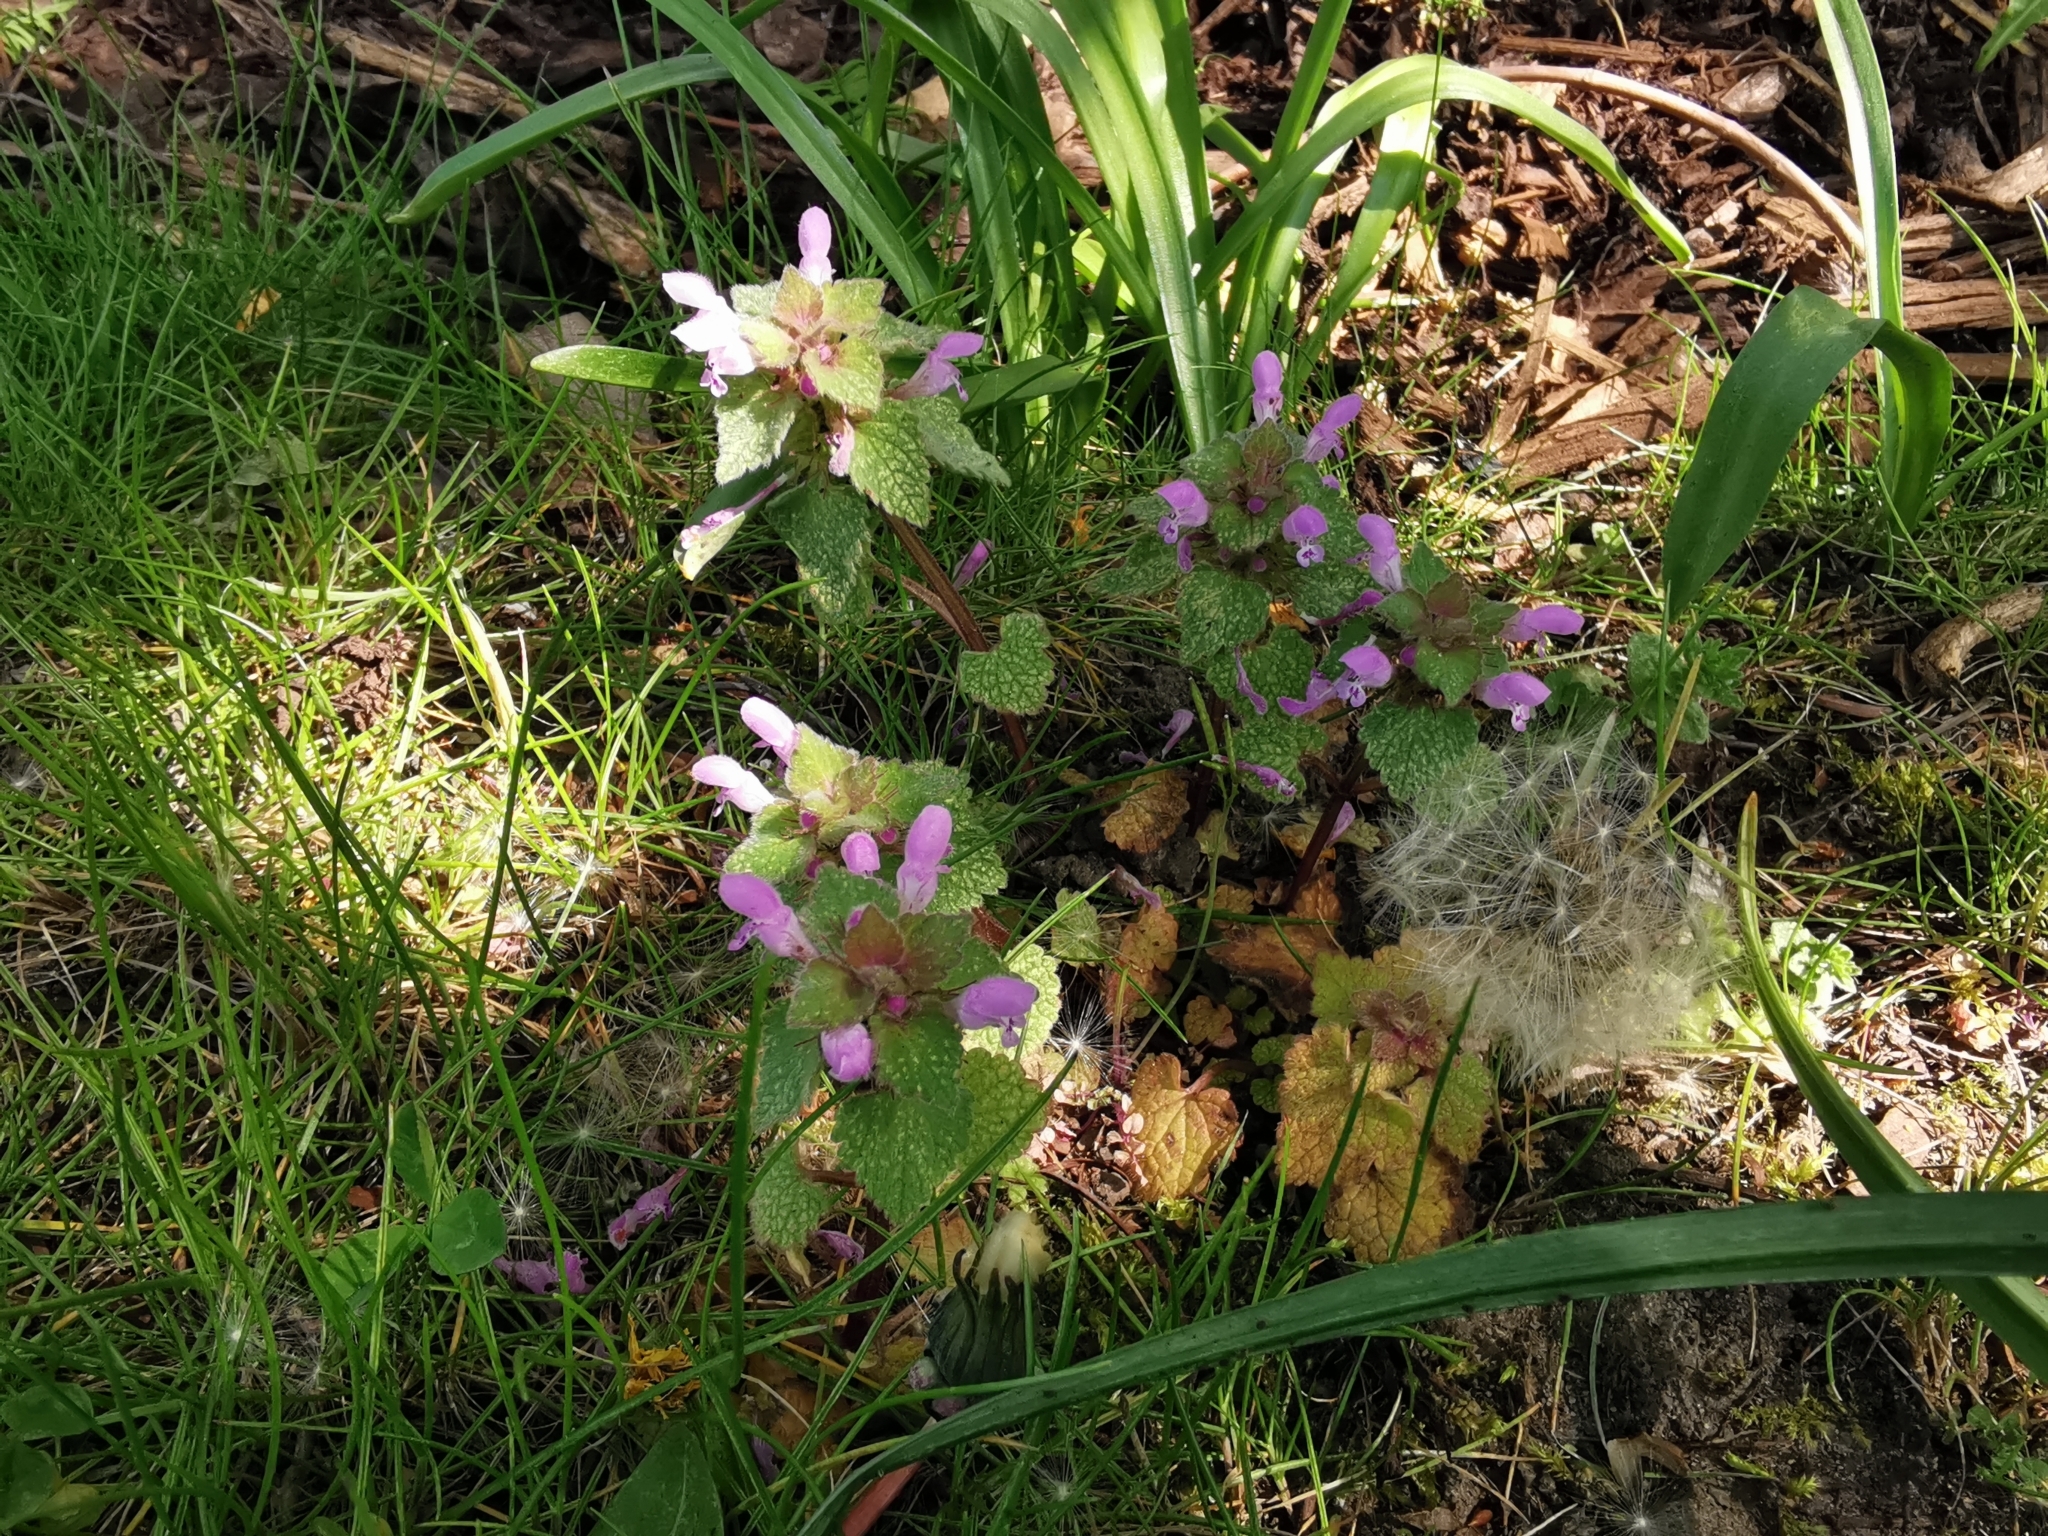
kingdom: Plantae
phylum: Tracheophyta
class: Magnoliopsida
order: Lamiales
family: Lamiaceae
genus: Lamium
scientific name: Lamium purpureum
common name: Red dead-nettle
